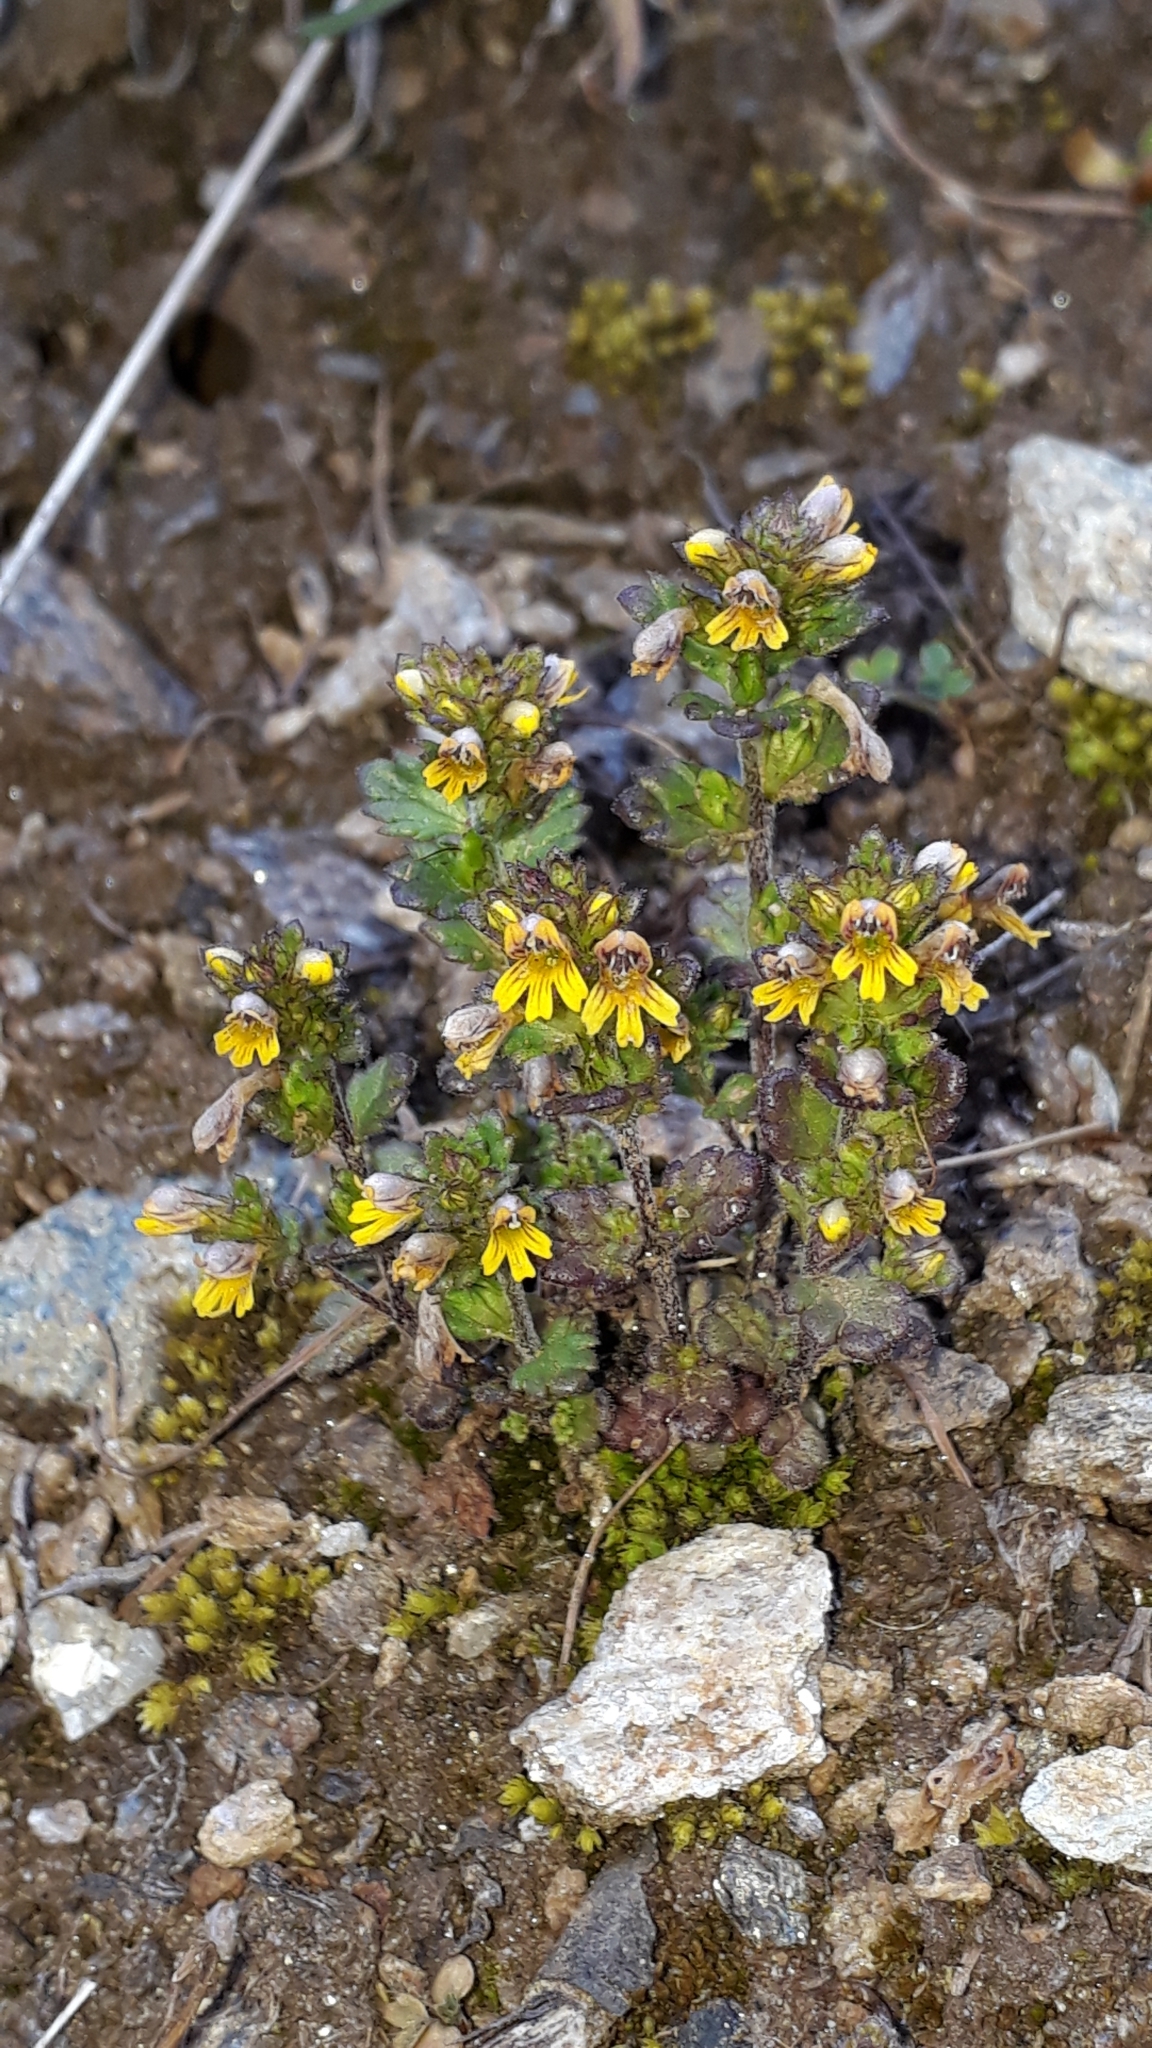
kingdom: Plantae
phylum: Tracheophyta
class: Magnoliopsida
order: Lamiales
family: Orobanchaceae
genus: Euphrasia
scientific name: Euphrasia minima
